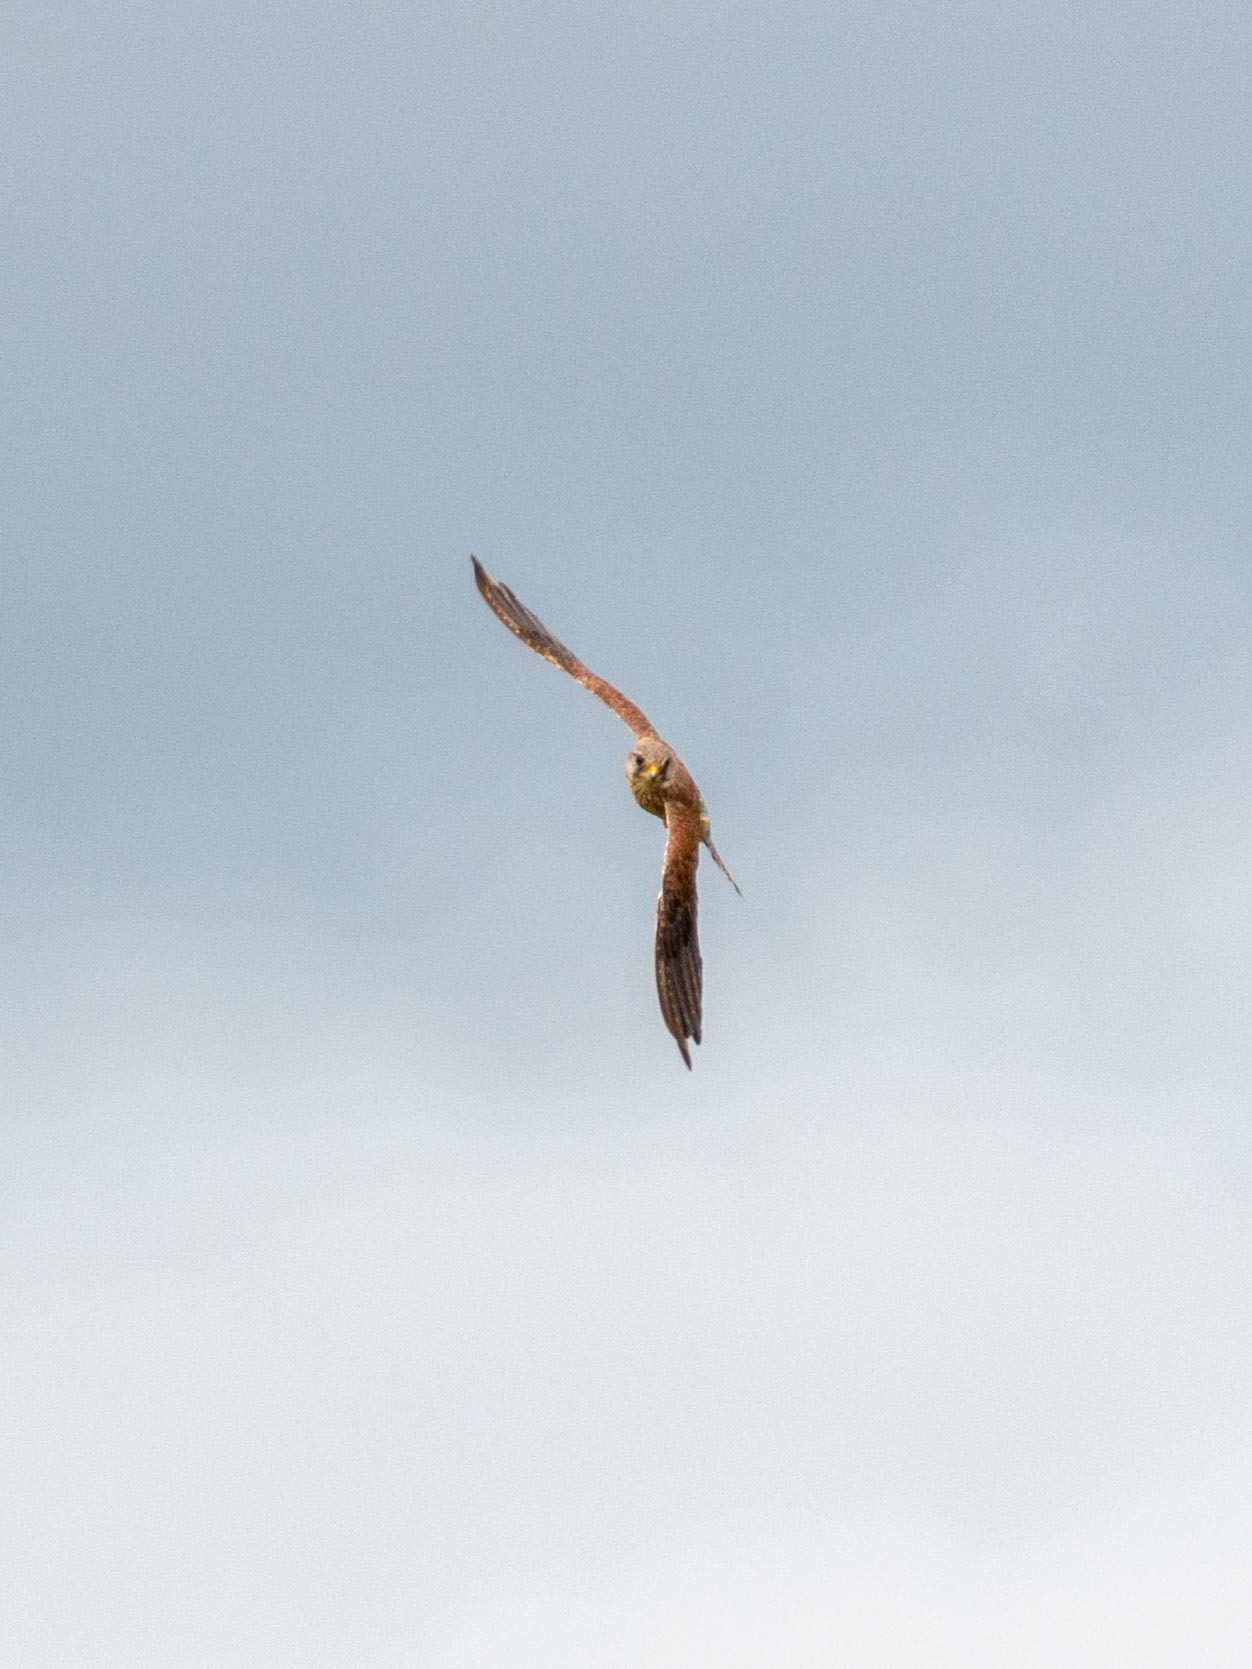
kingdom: Animalia
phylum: Chordata
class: Aves
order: Falconiformes
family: Falconidae
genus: Falco
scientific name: Falco tinnunculus
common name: Common kestrel
